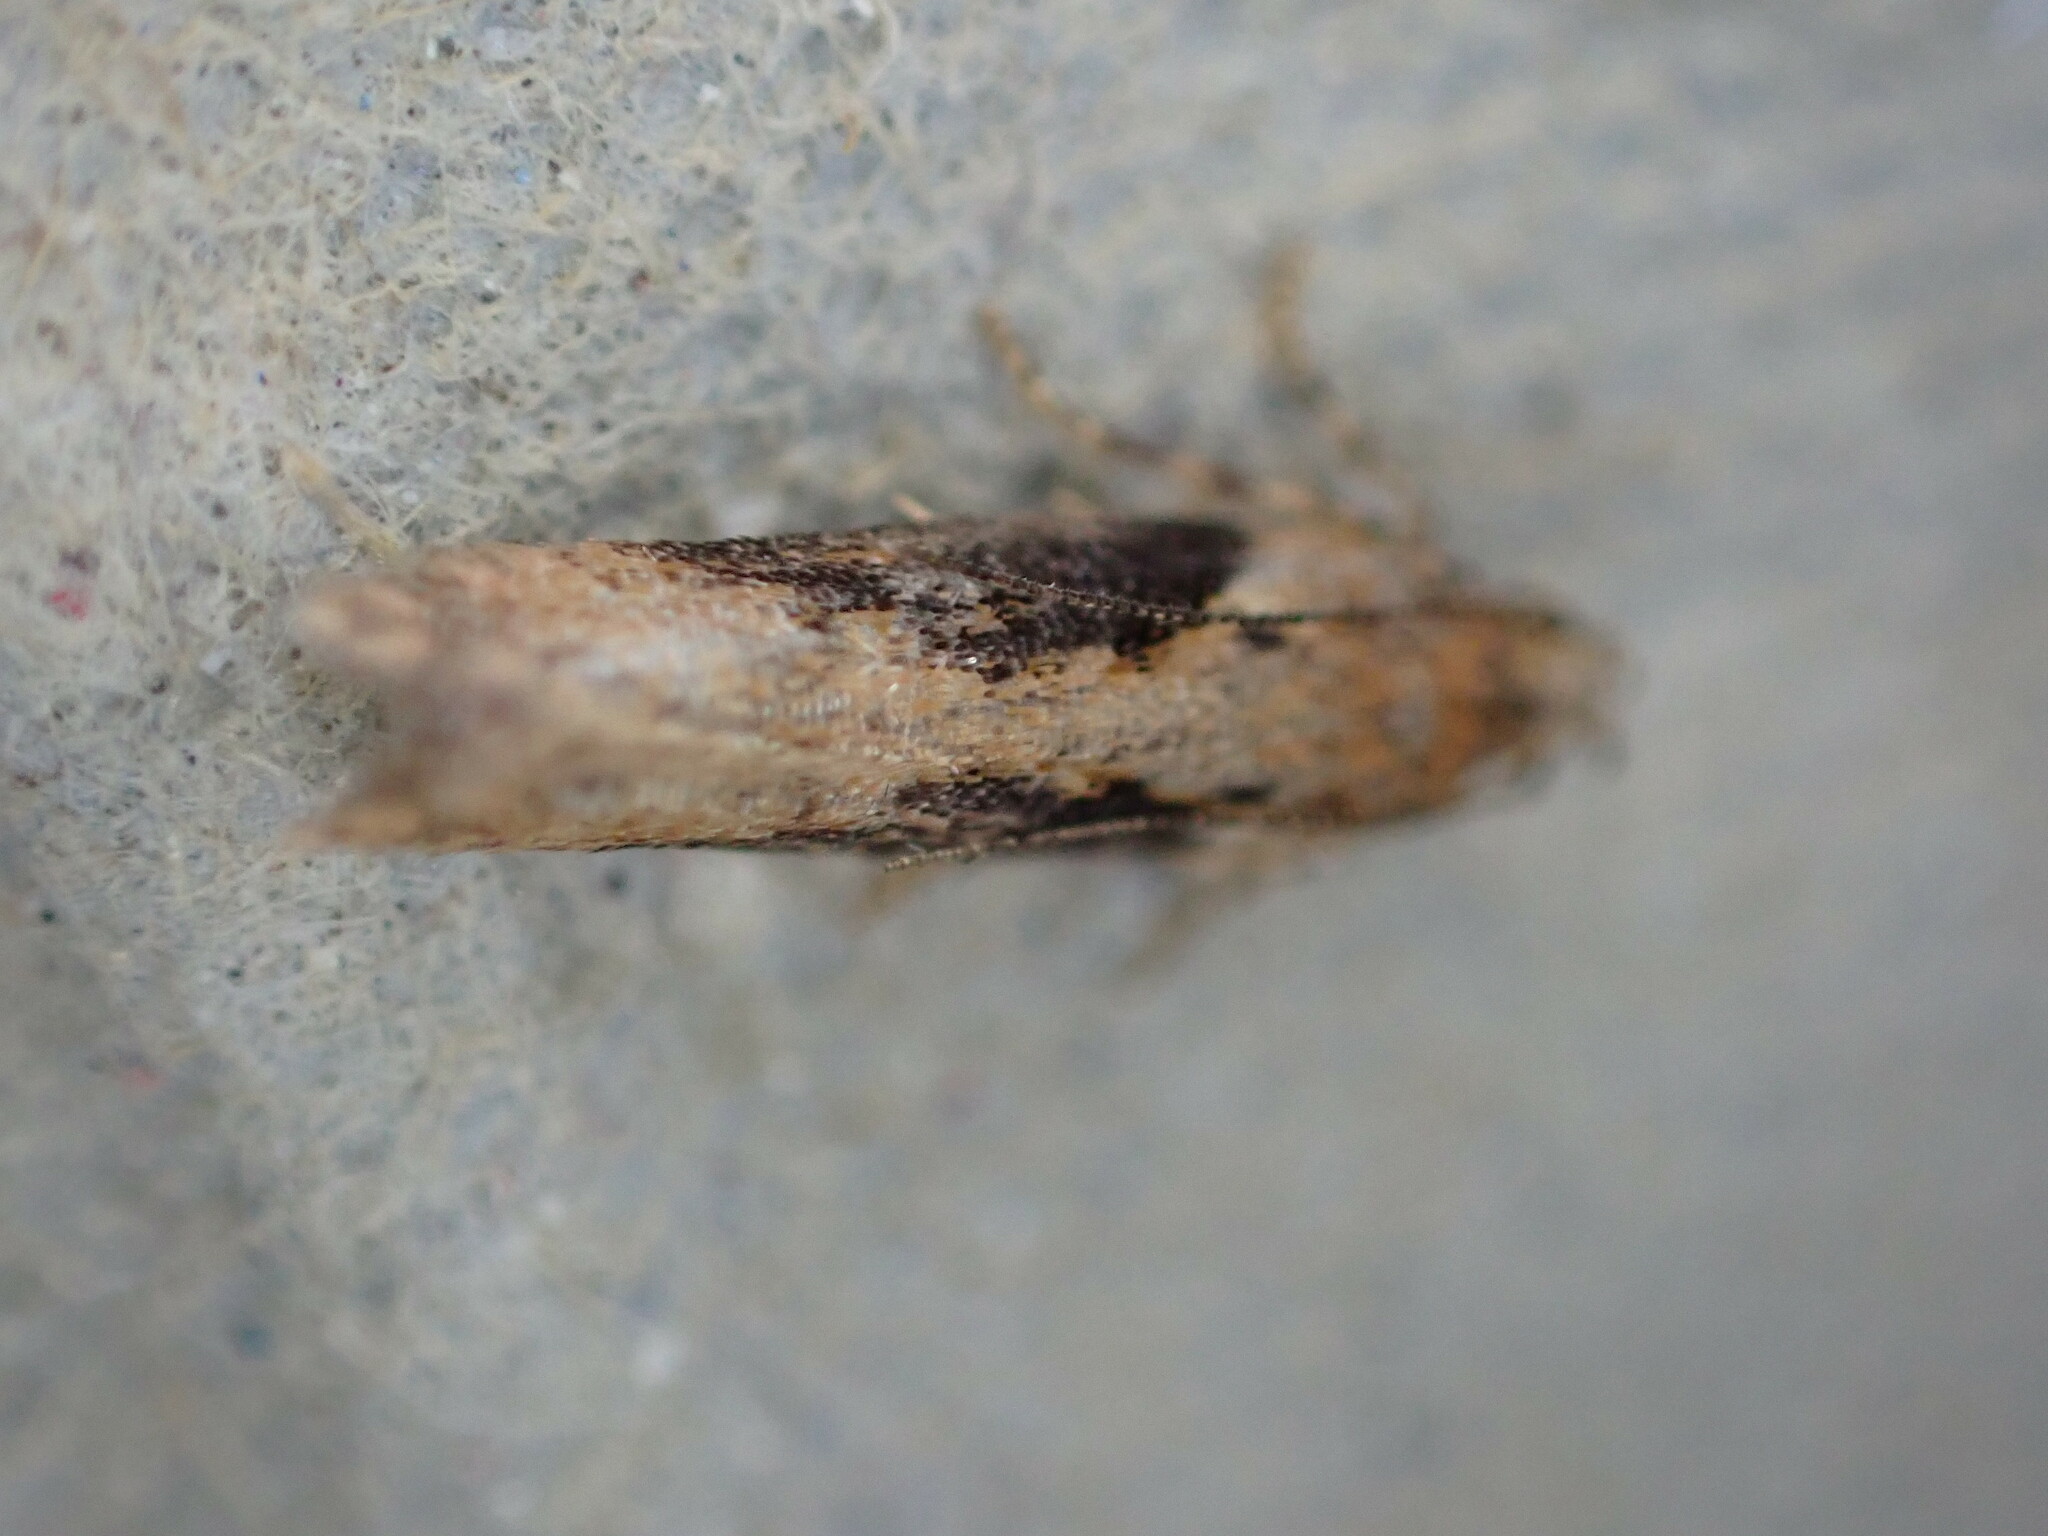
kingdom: Animalia
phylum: Arthropoda
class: Insecta
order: Lepidoptera
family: Gelechiidae
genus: Scrobipalpa
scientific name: Scrobipalpa costella
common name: Winter groundling
